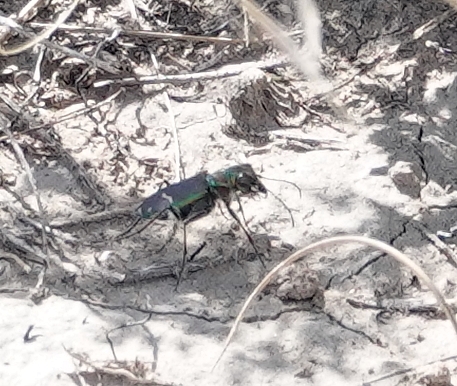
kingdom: Animalia
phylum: Arthropoda
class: Insecta
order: Coleoptera
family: Carabidae
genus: Cicindela
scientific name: Cicindela purpurea
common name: Cow path tiger beetle
